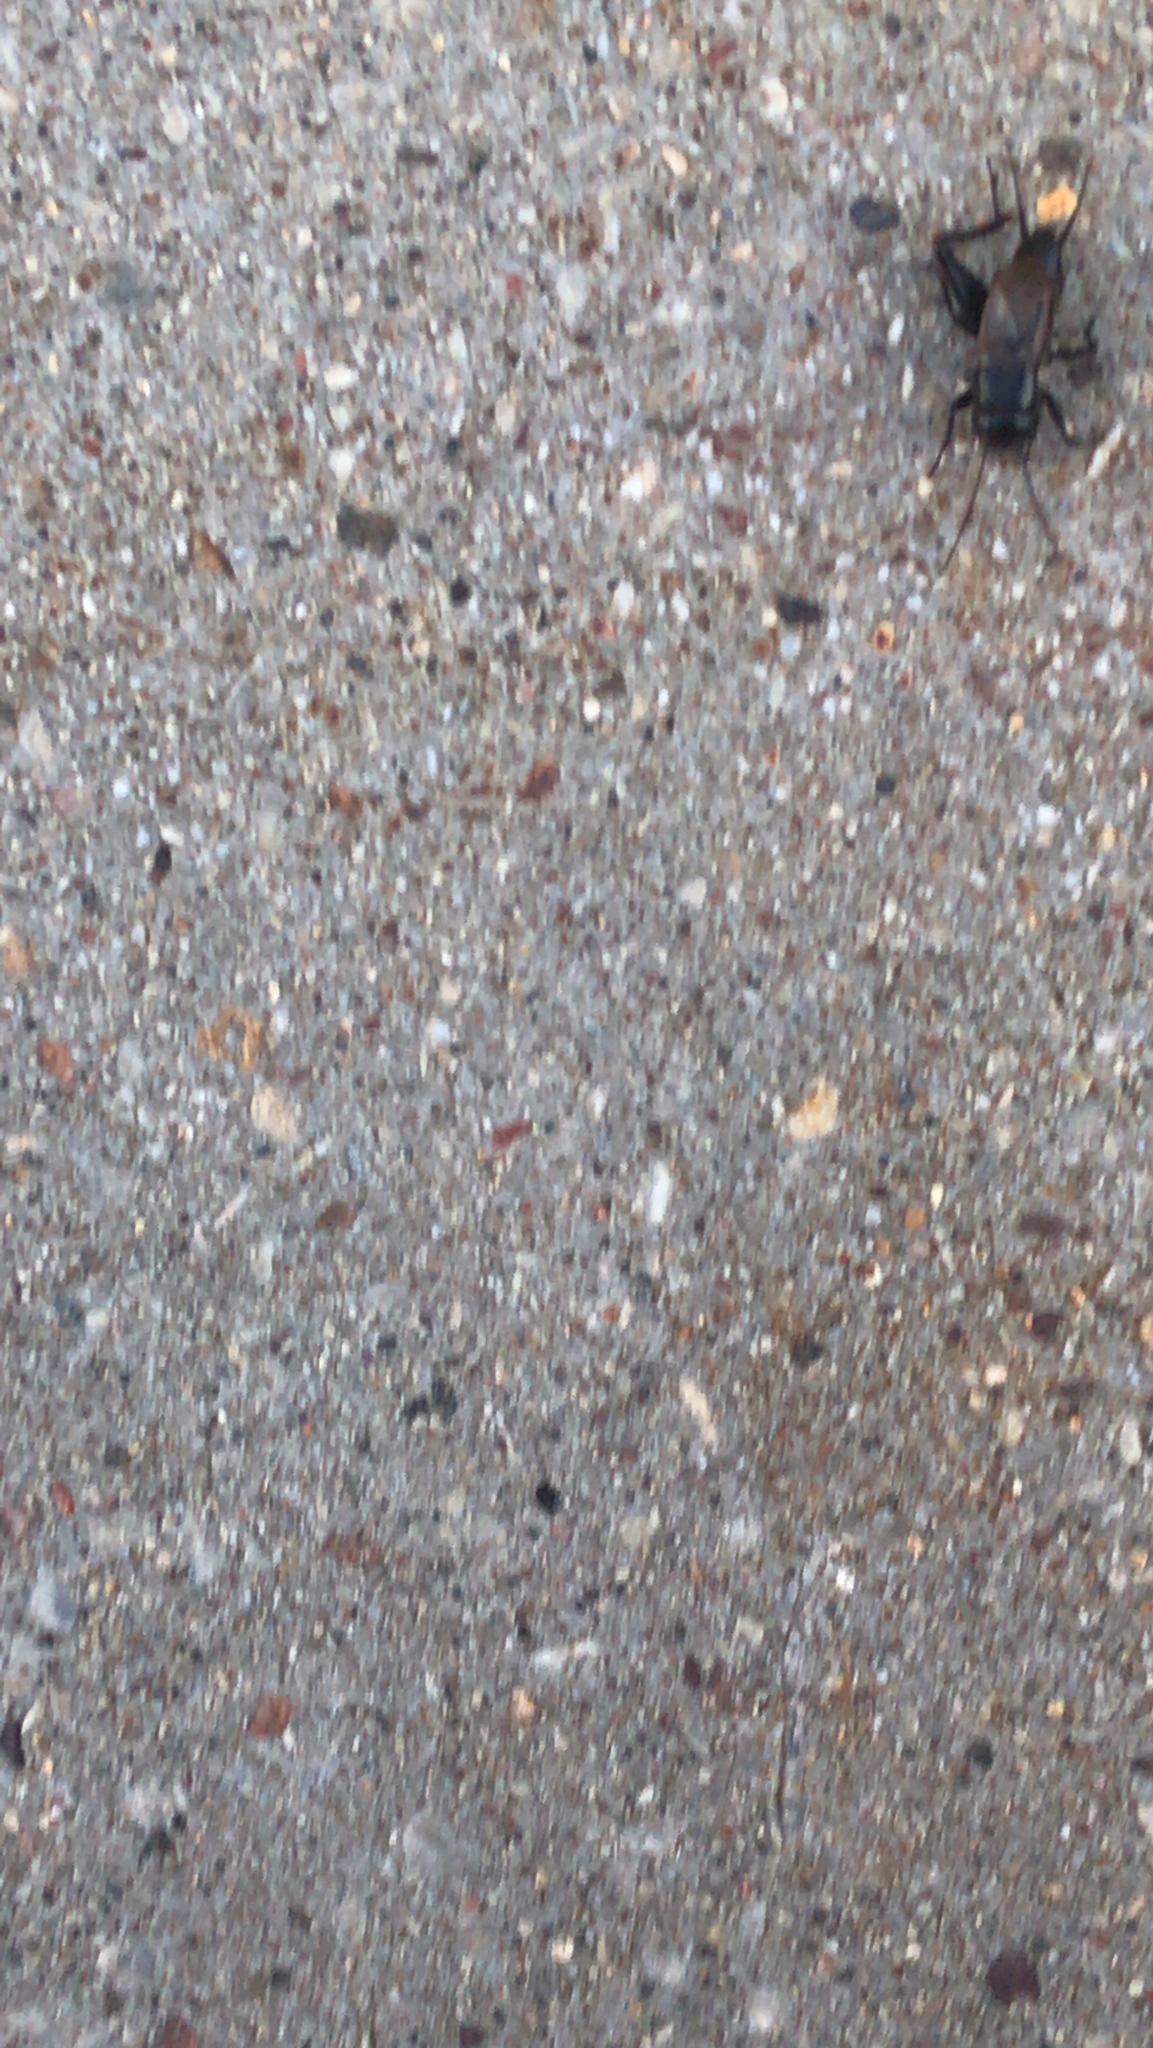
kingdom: Animalia
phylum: Arthropoda
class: Insecta
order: Orthoptera
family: Gryllidae
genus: Gryllus
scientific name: Gryllus pennsylvanicus
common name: Fall field cricket
